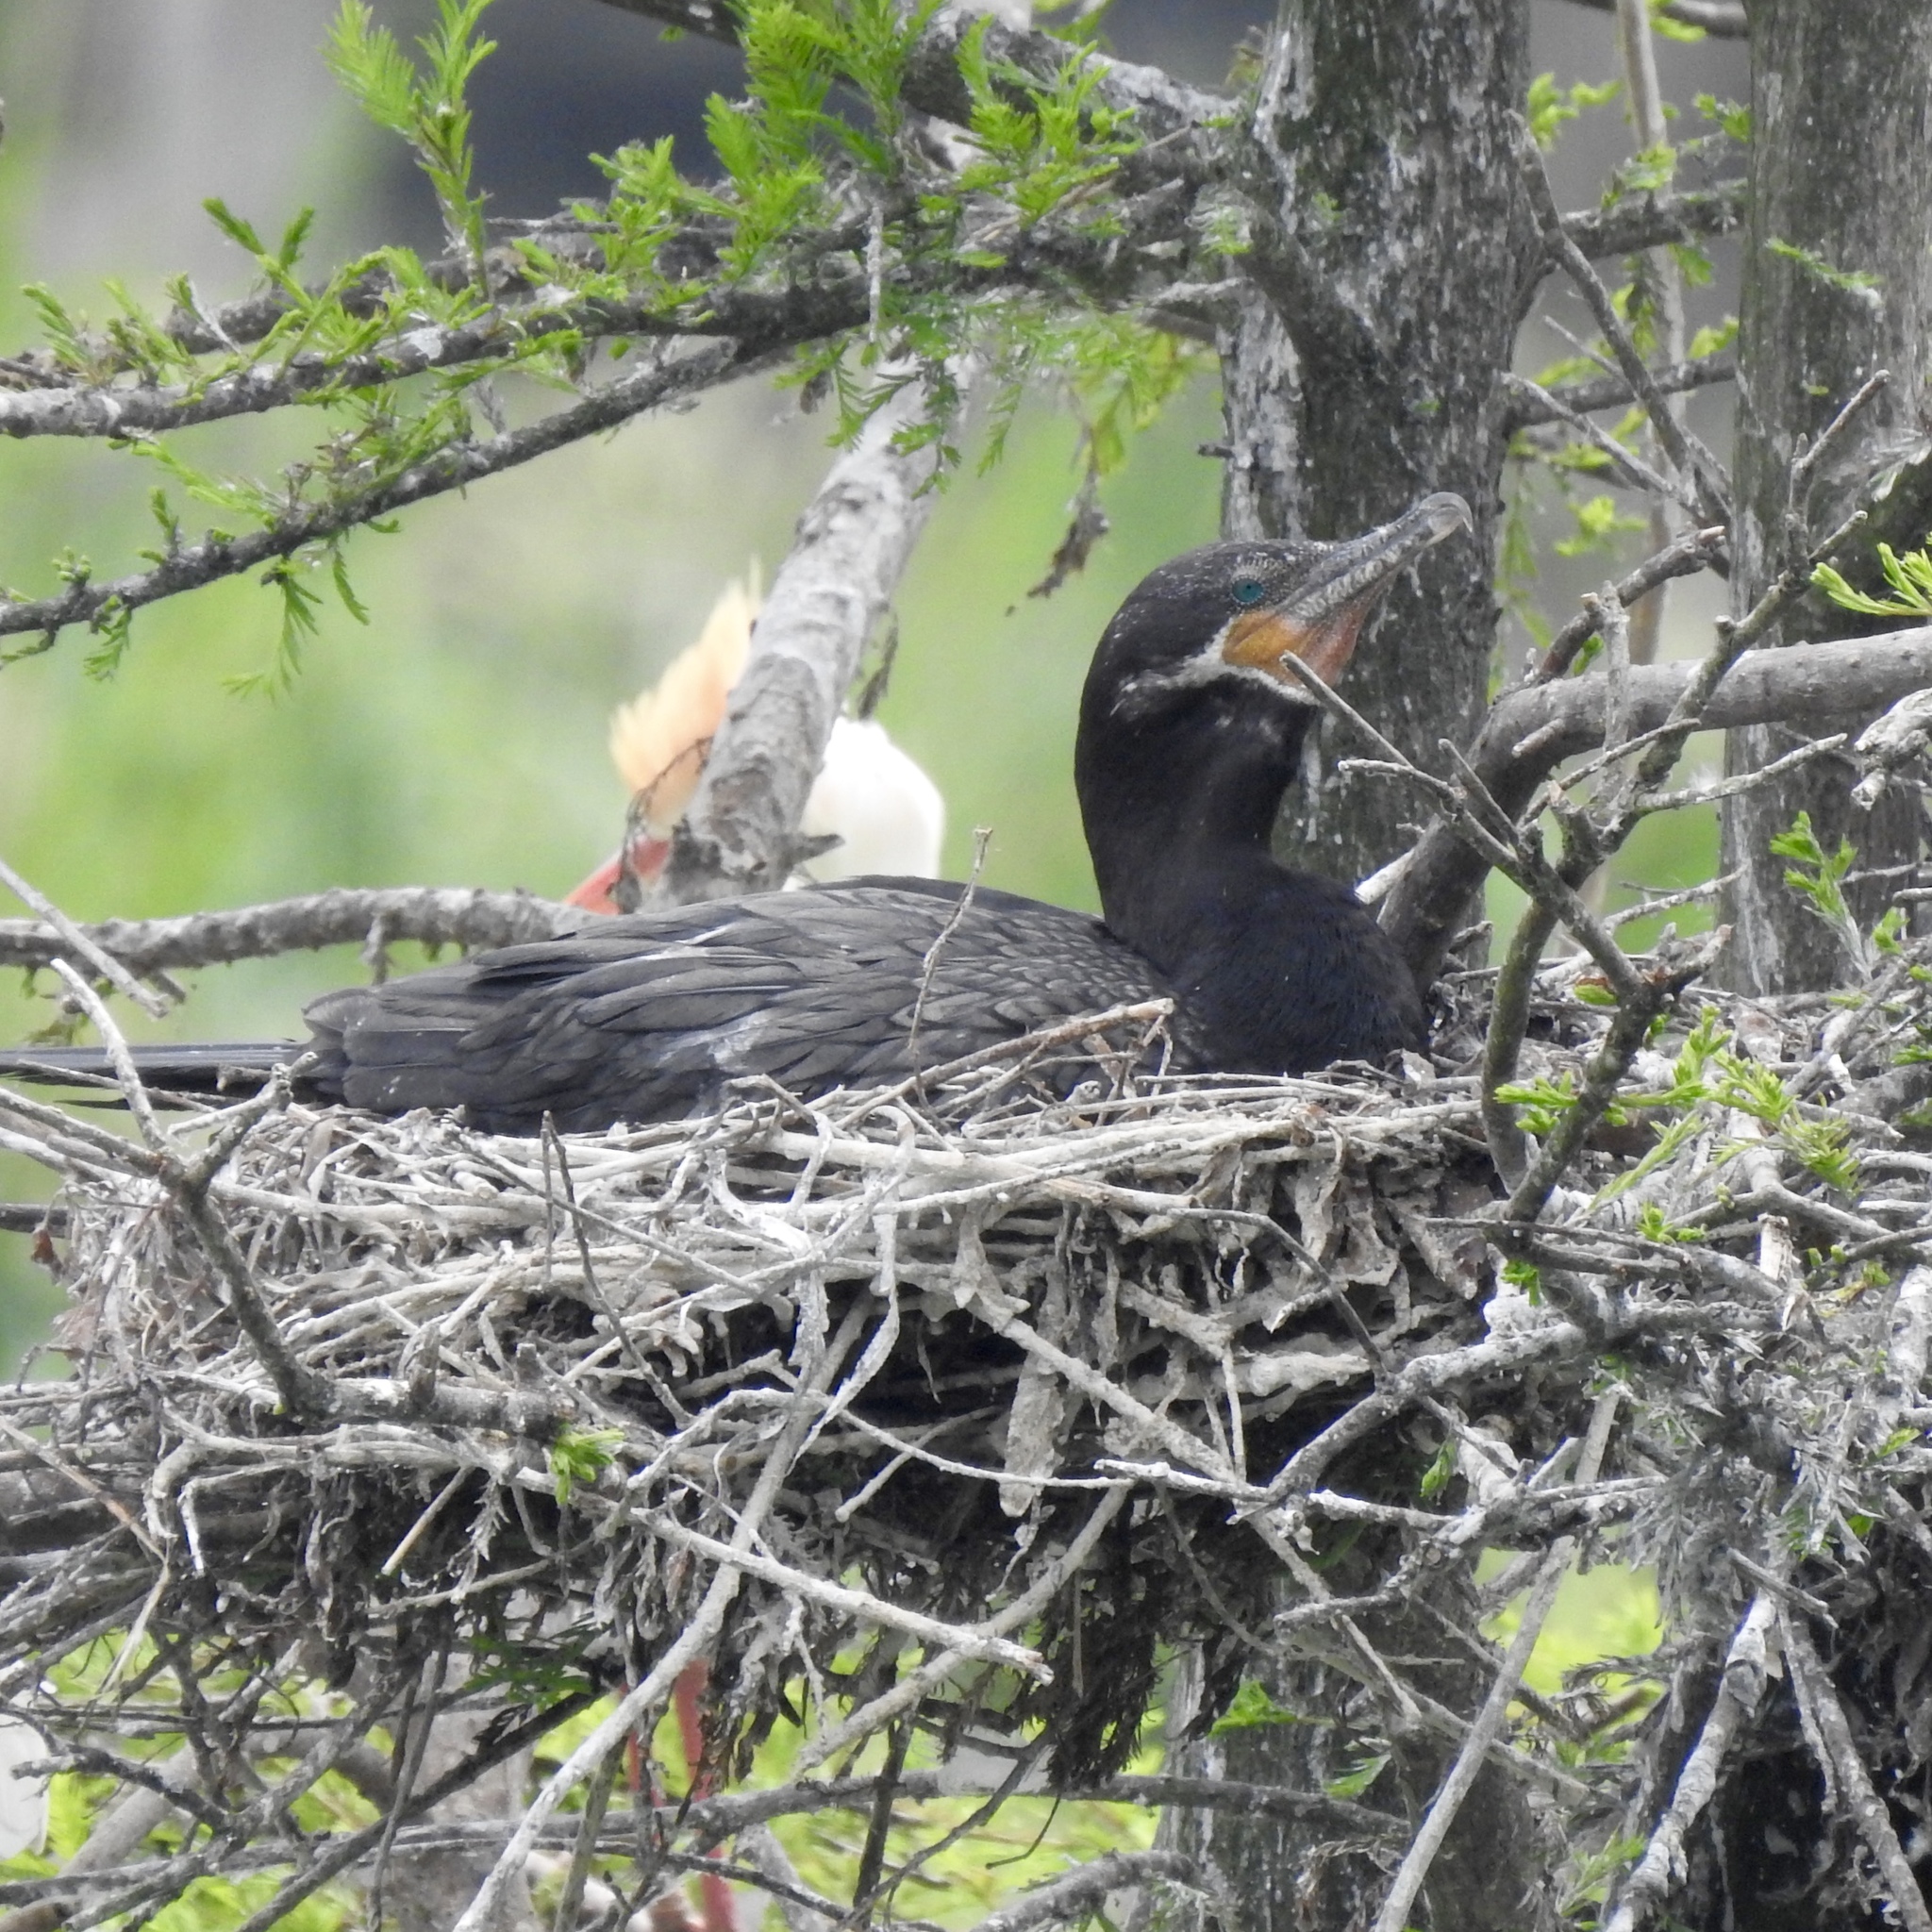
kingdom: Animalia
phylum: Chordata
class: Aves
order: Suliformes
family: Phalacrocoracidae
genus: Phalacrocorax
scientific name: Phalacrocorax brasilianus
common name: Neotropic cormorant
